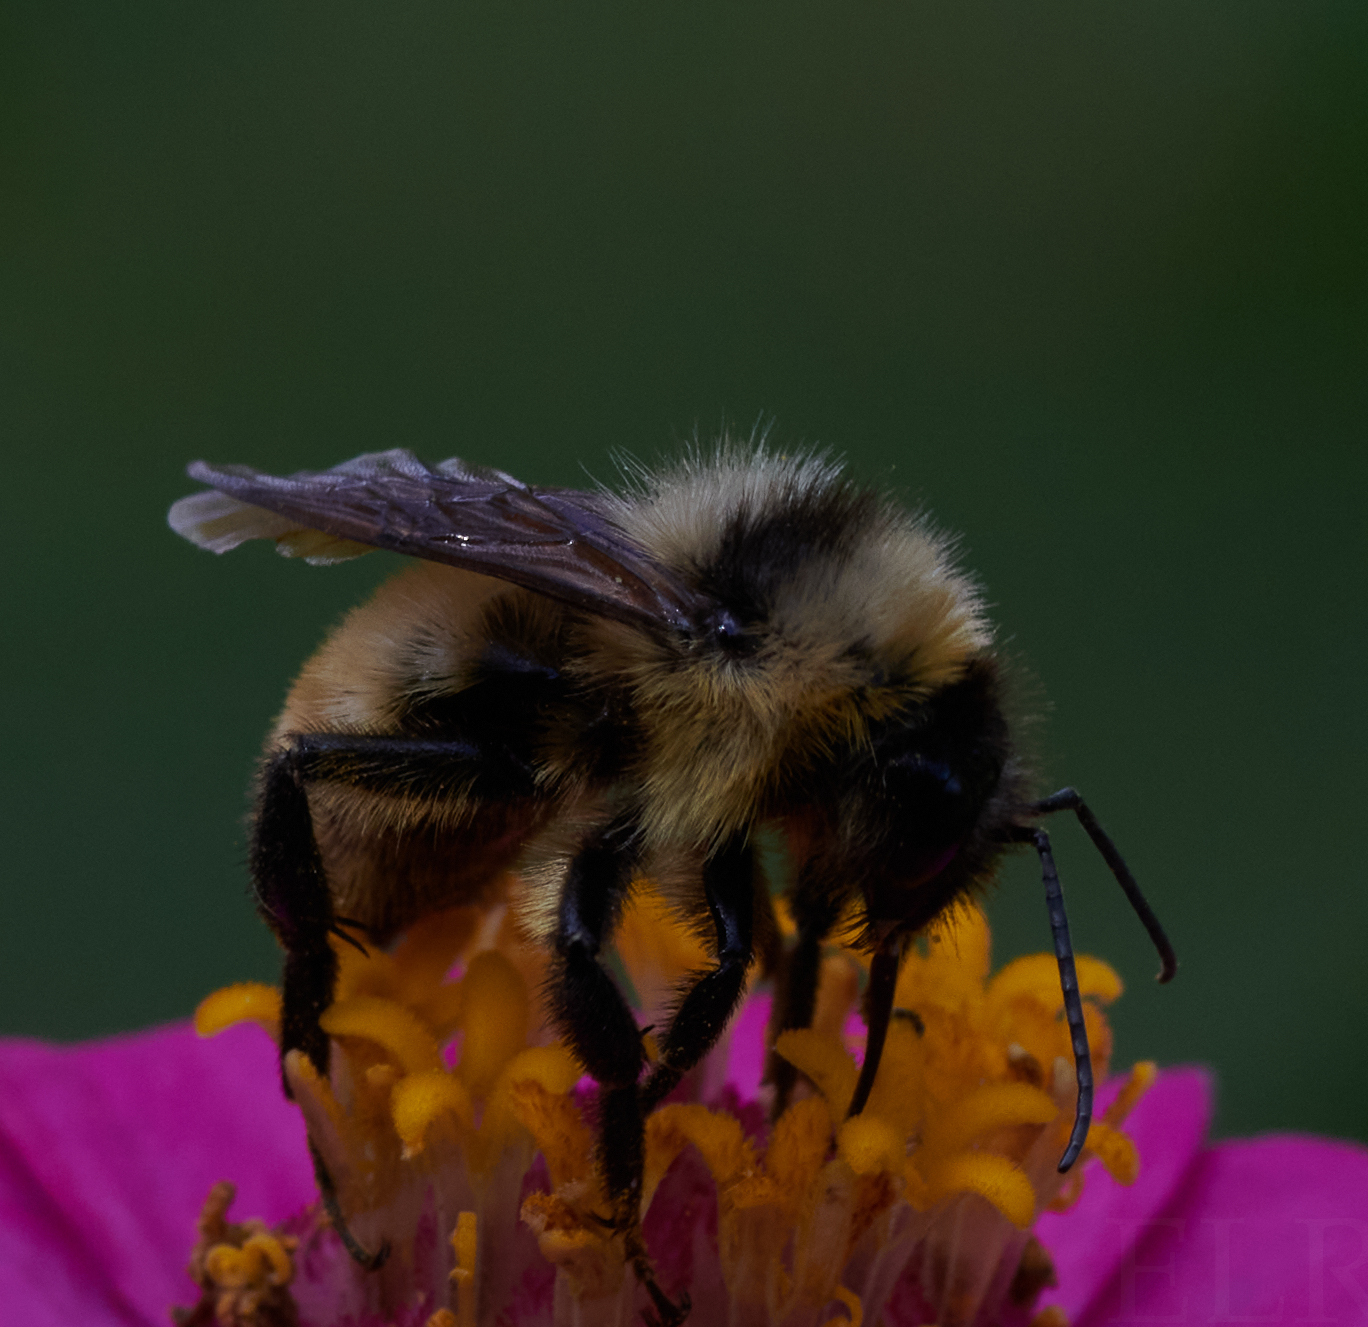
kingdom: Animalia
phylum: Arthropoda
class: Insecta
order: Hymenoptera
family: Apidae
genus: Bombus
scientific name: Bombus fervidus
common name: Yellow bumble bee
